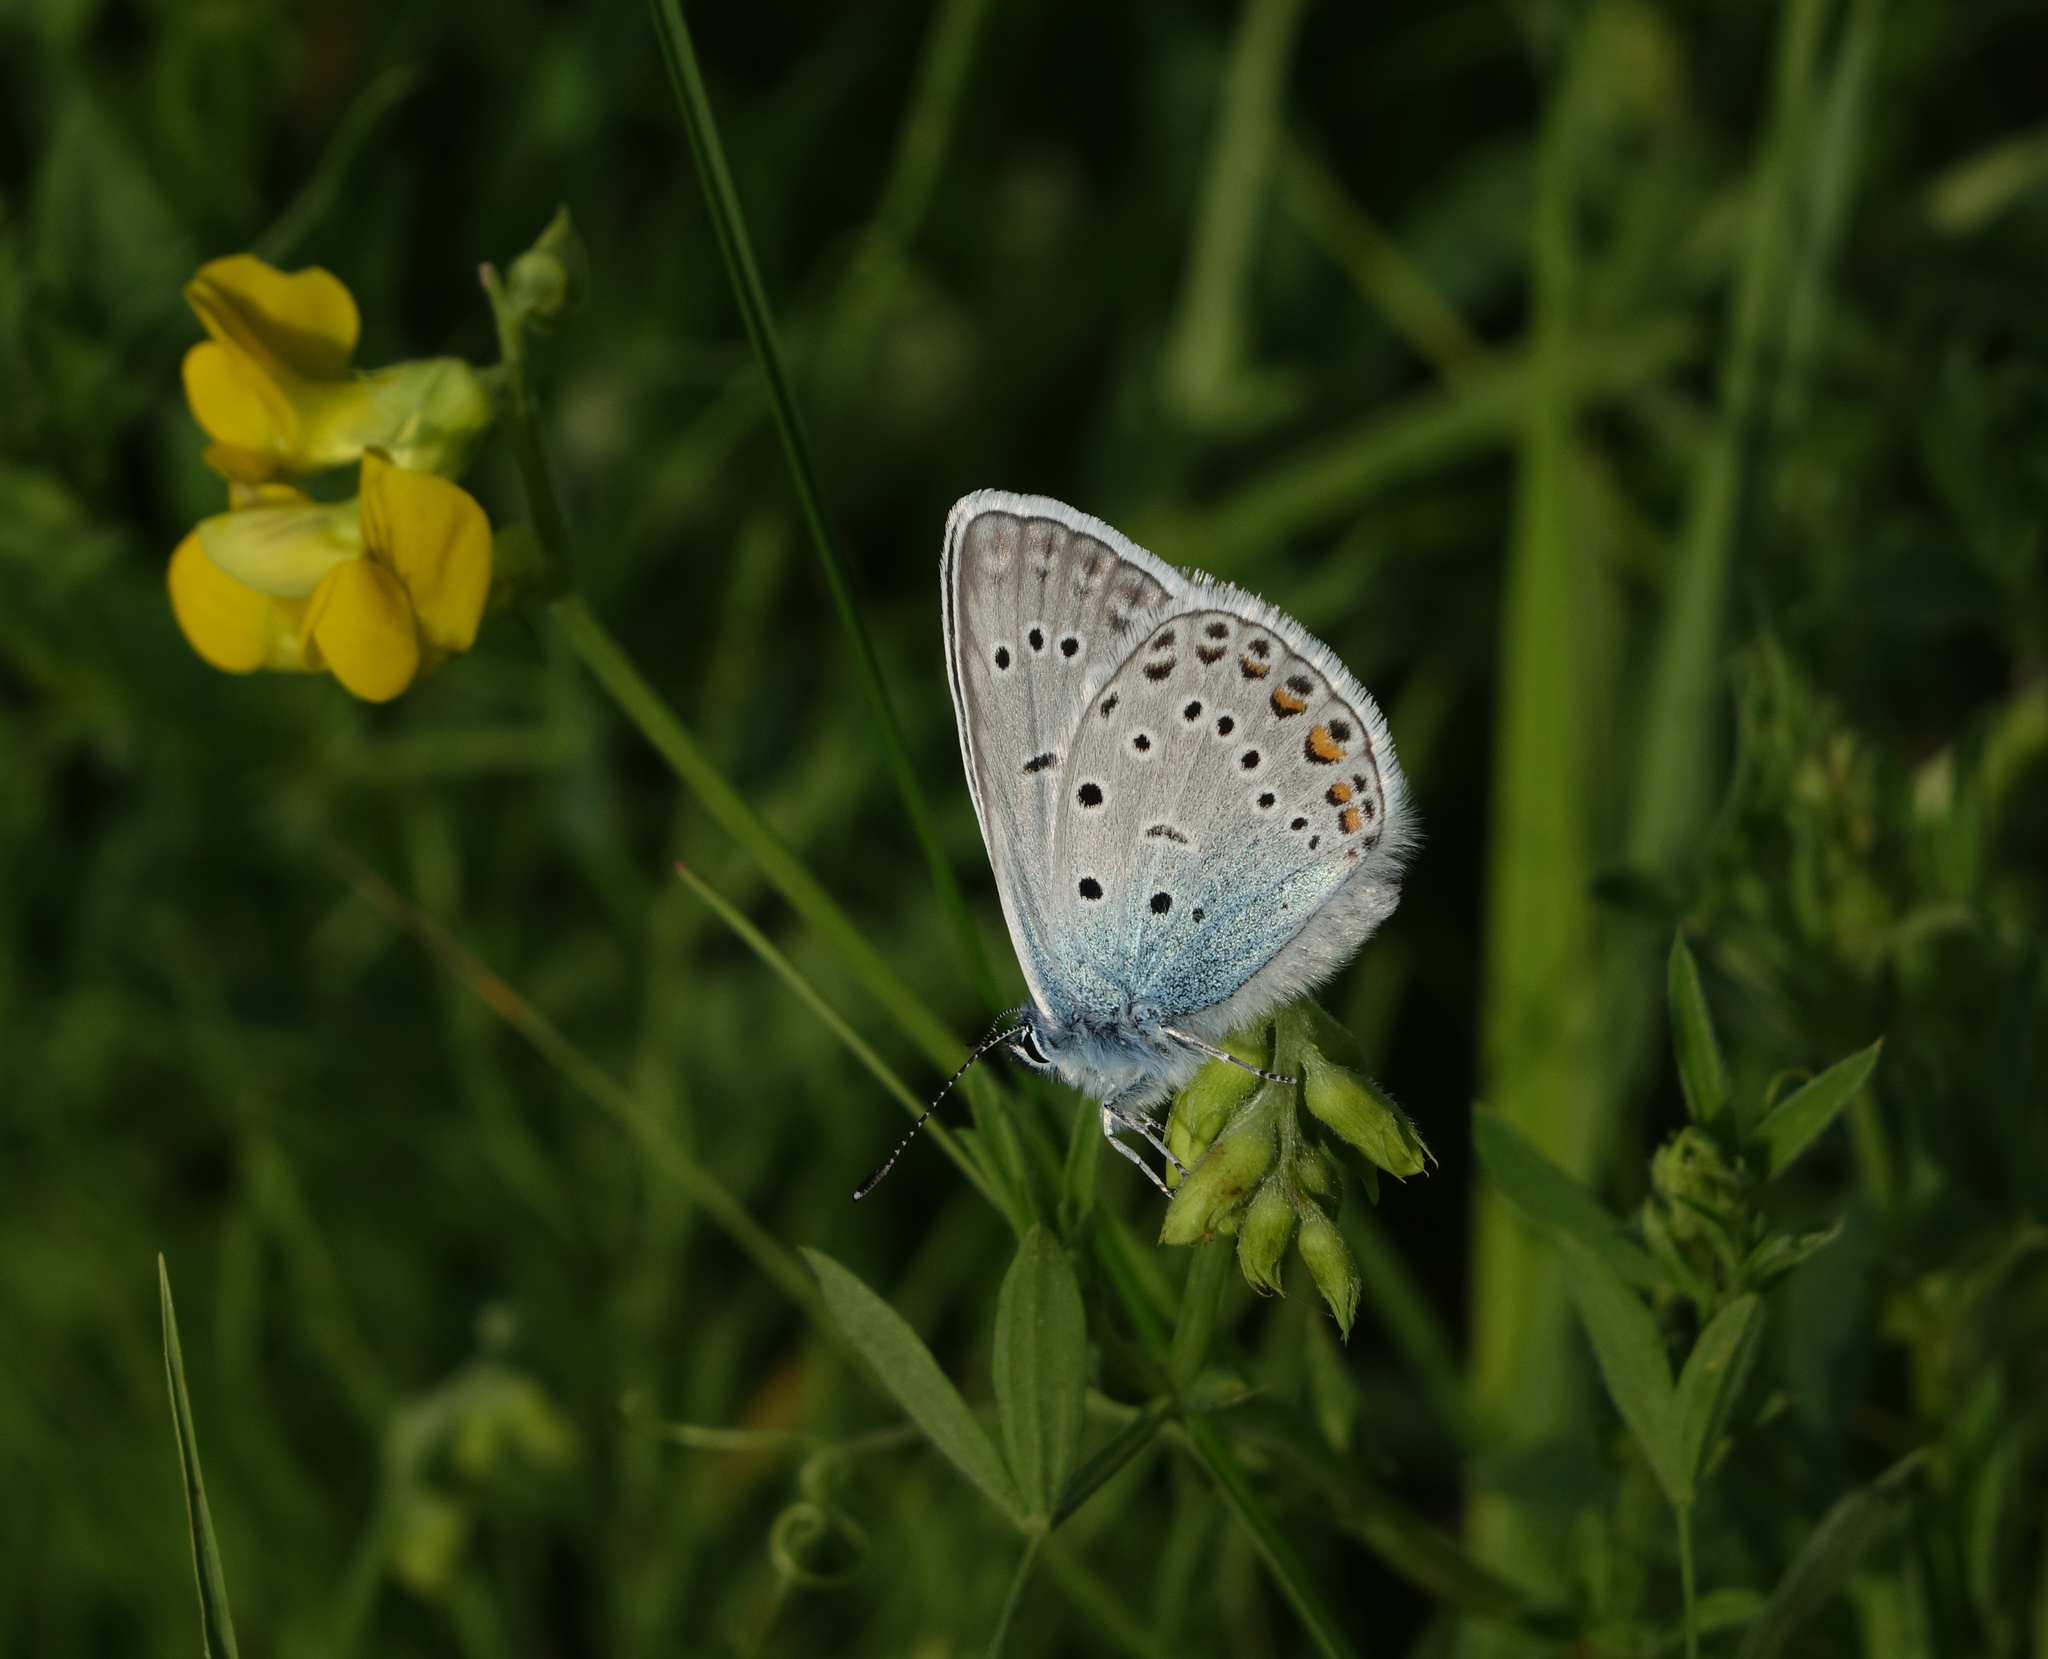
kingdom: Plantae
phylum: Tracheophyta
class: Magnoliopsida
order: Fabales
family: Fabaceae
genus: Lathyrus
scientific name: Lathyrus pratensis
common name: Meadow vetchling
